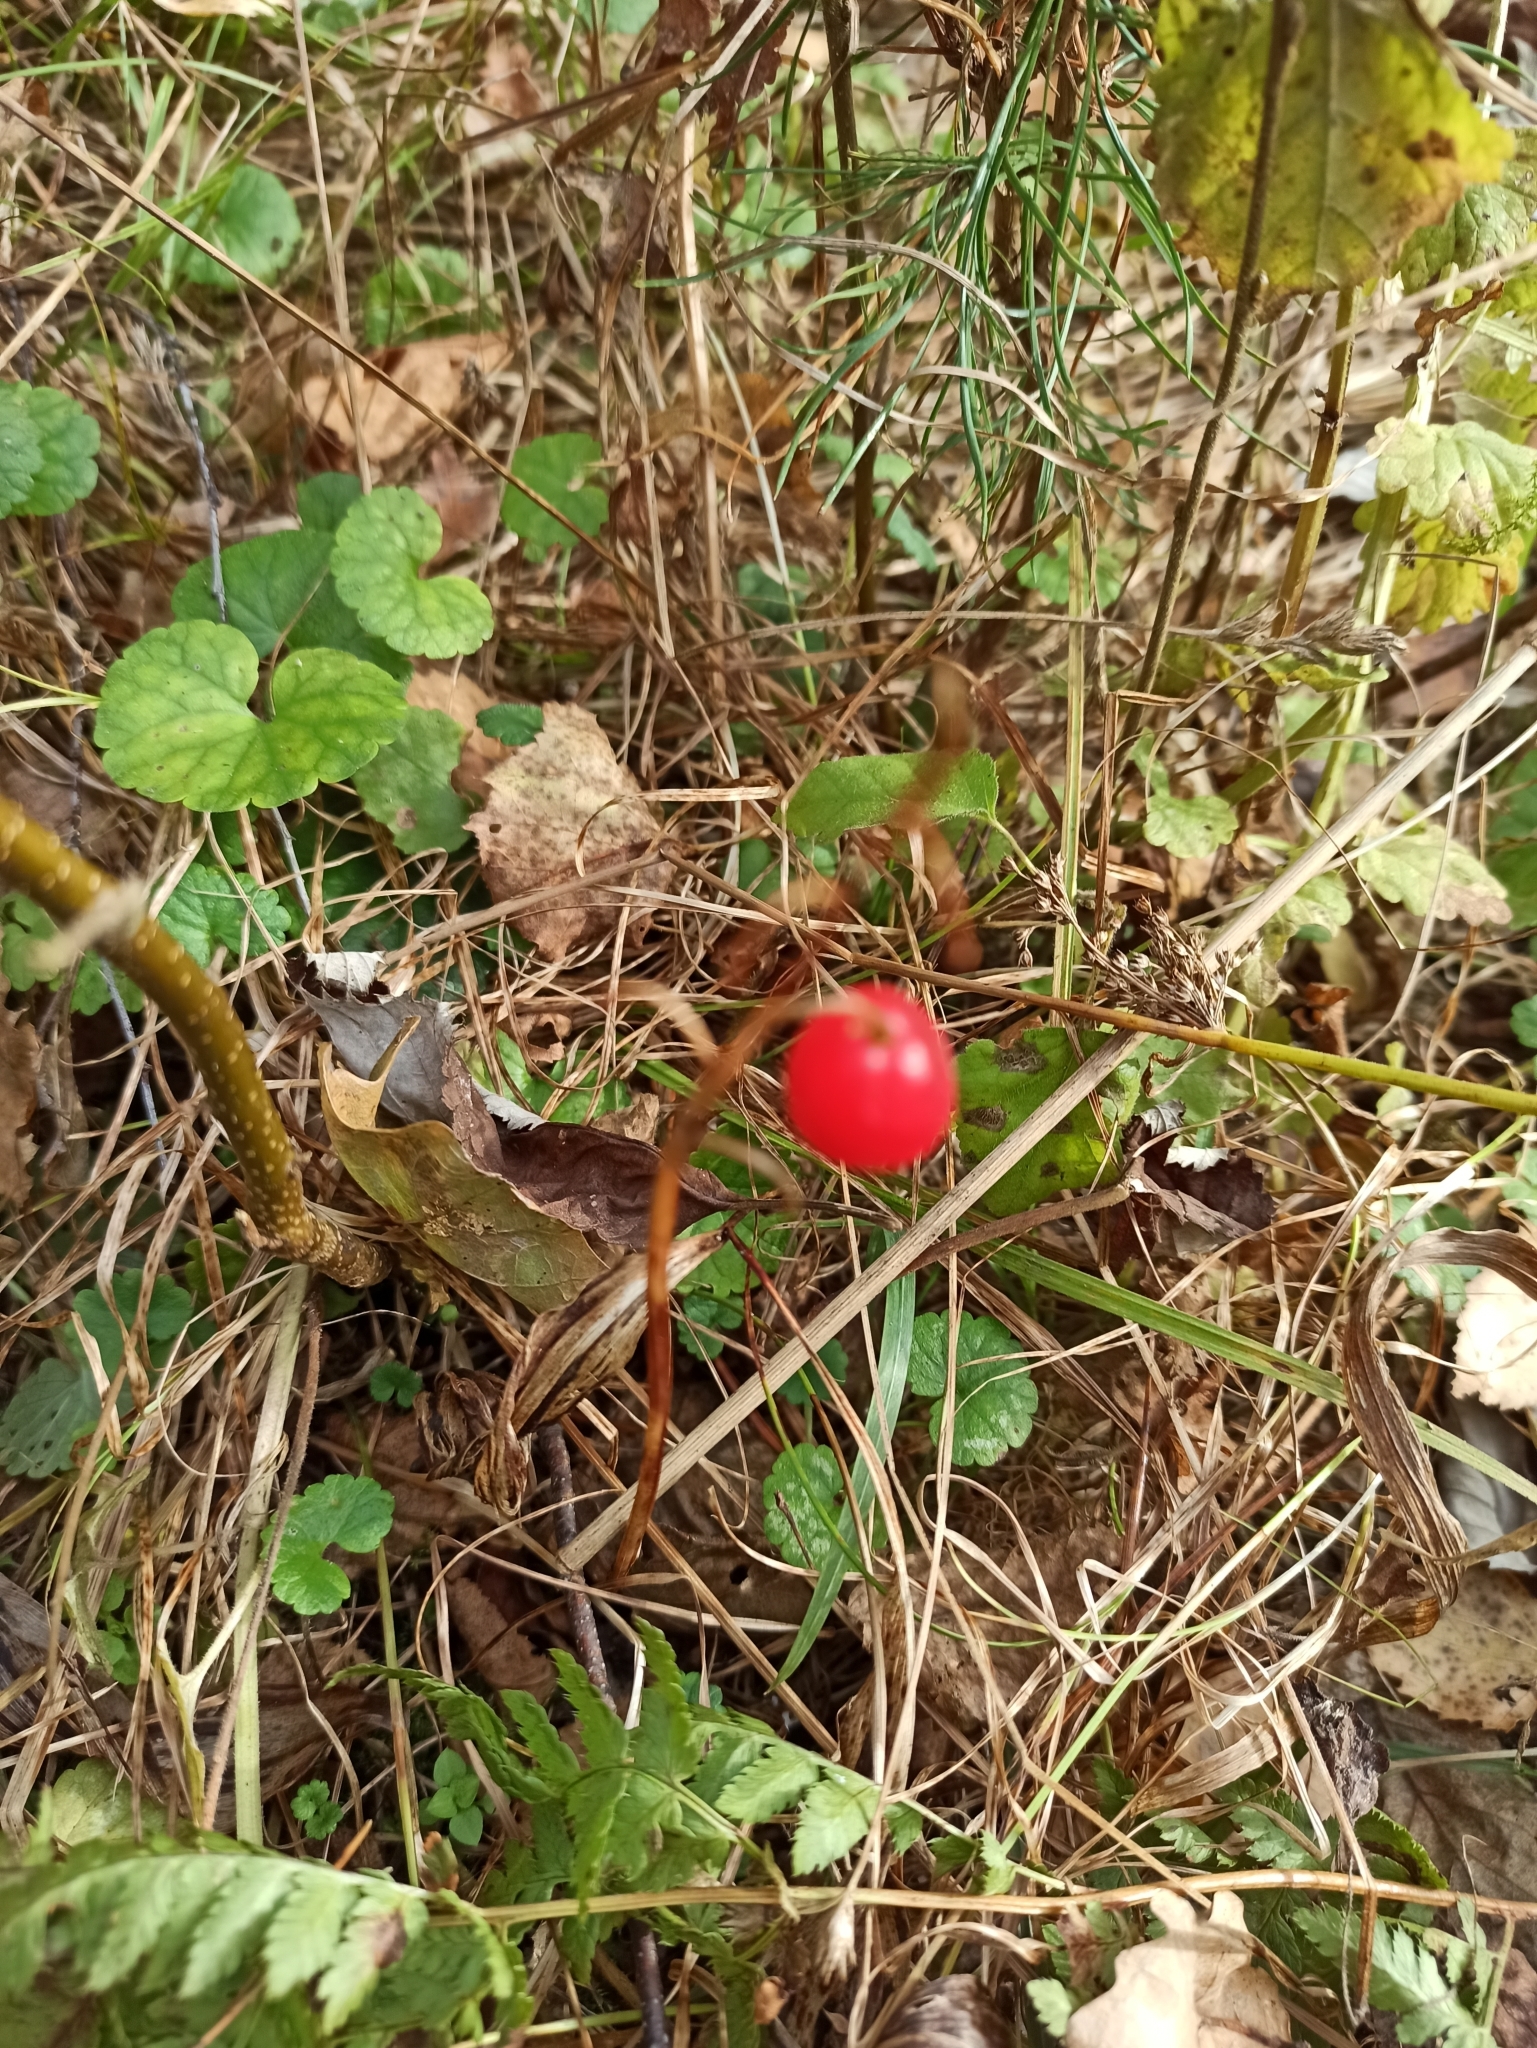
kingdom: Plantae
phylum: Tracheophyta
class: Liliopsida
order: Asparagales
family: Asparagaceae
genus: Convallaria
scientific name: Convallaria majalis
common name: Lily-of-the-valley
